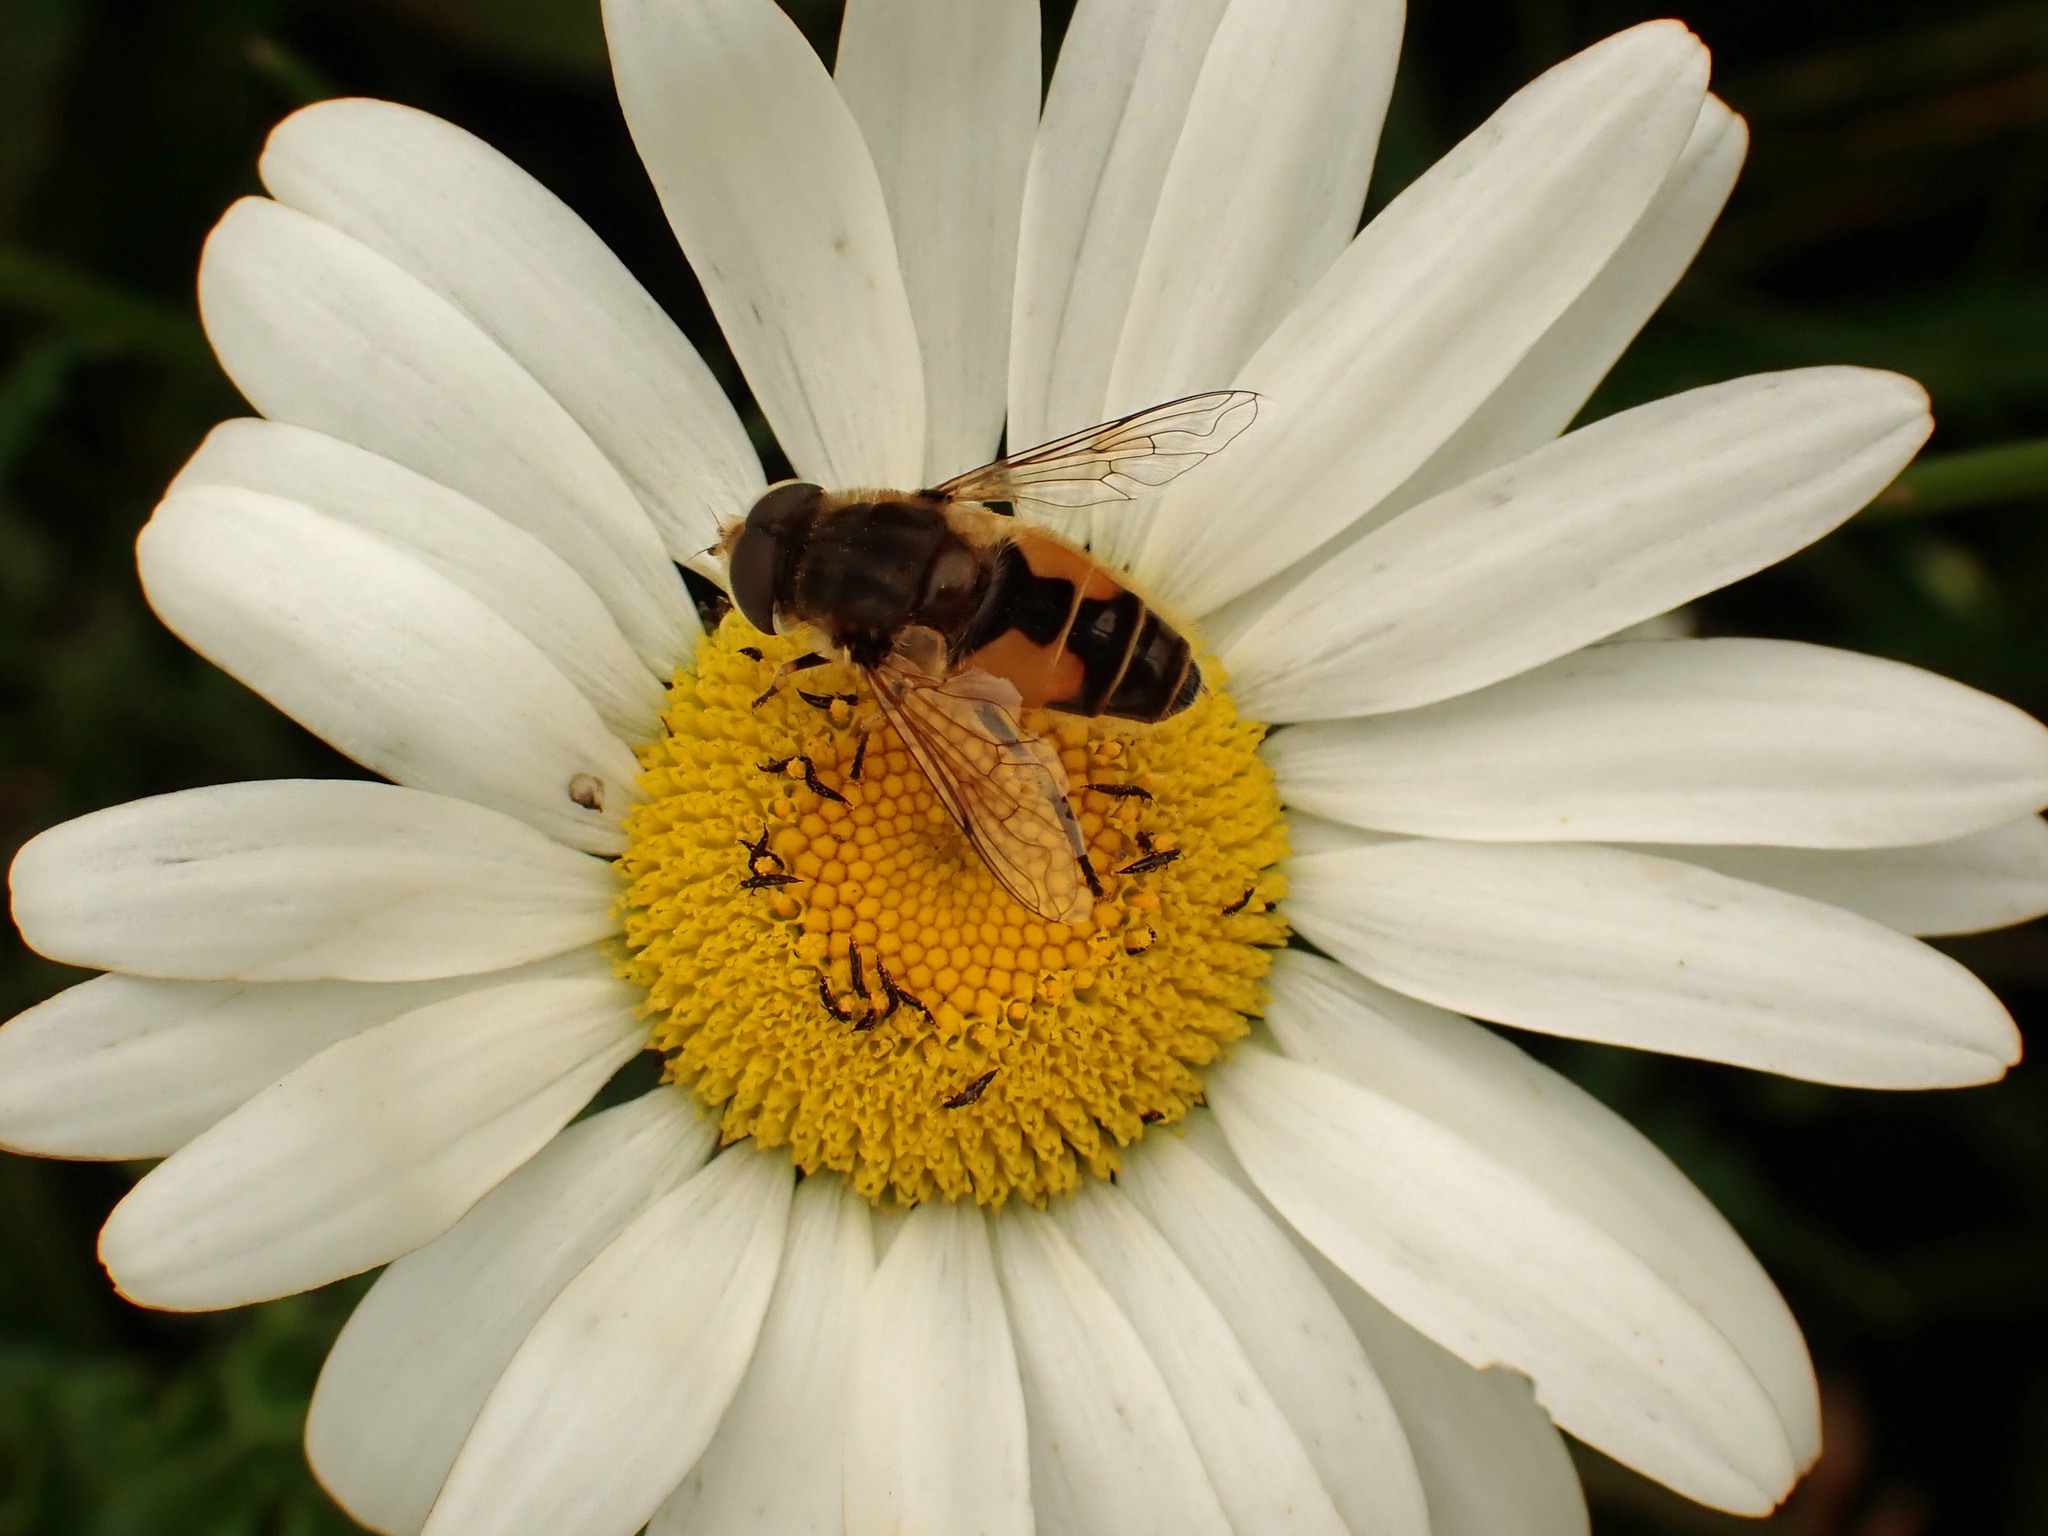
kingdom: Animalia
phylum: Arthropoda
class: Insecta
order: Diptera
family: Syrphidae
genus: Eristalis
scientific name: Eristalis arbustorum
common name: Hover fly
